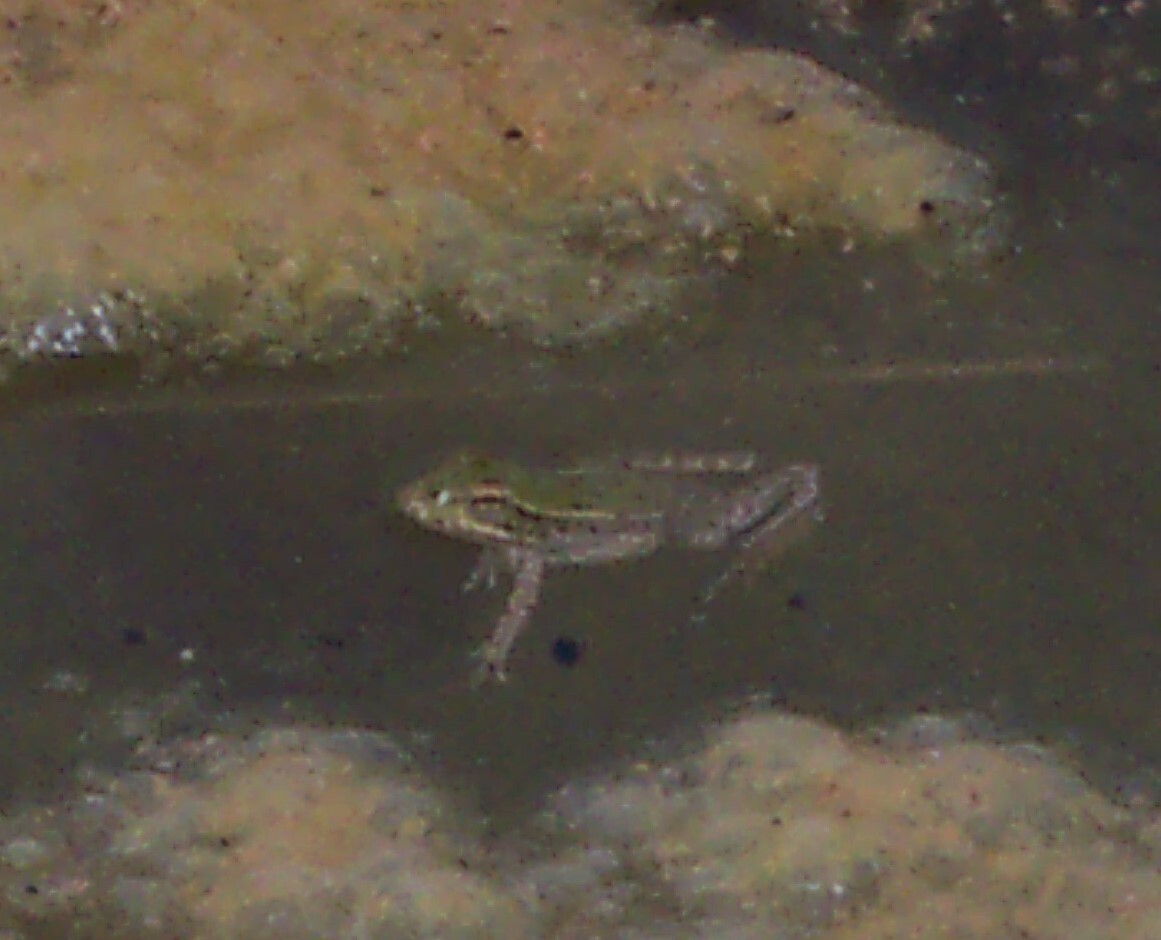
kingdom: Animalia
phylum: Chordata
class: Amphibia
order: Anura
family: Ranidae
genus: Lithobates
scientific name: Lithobates berlandieri
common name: Rio grande leopard frog
